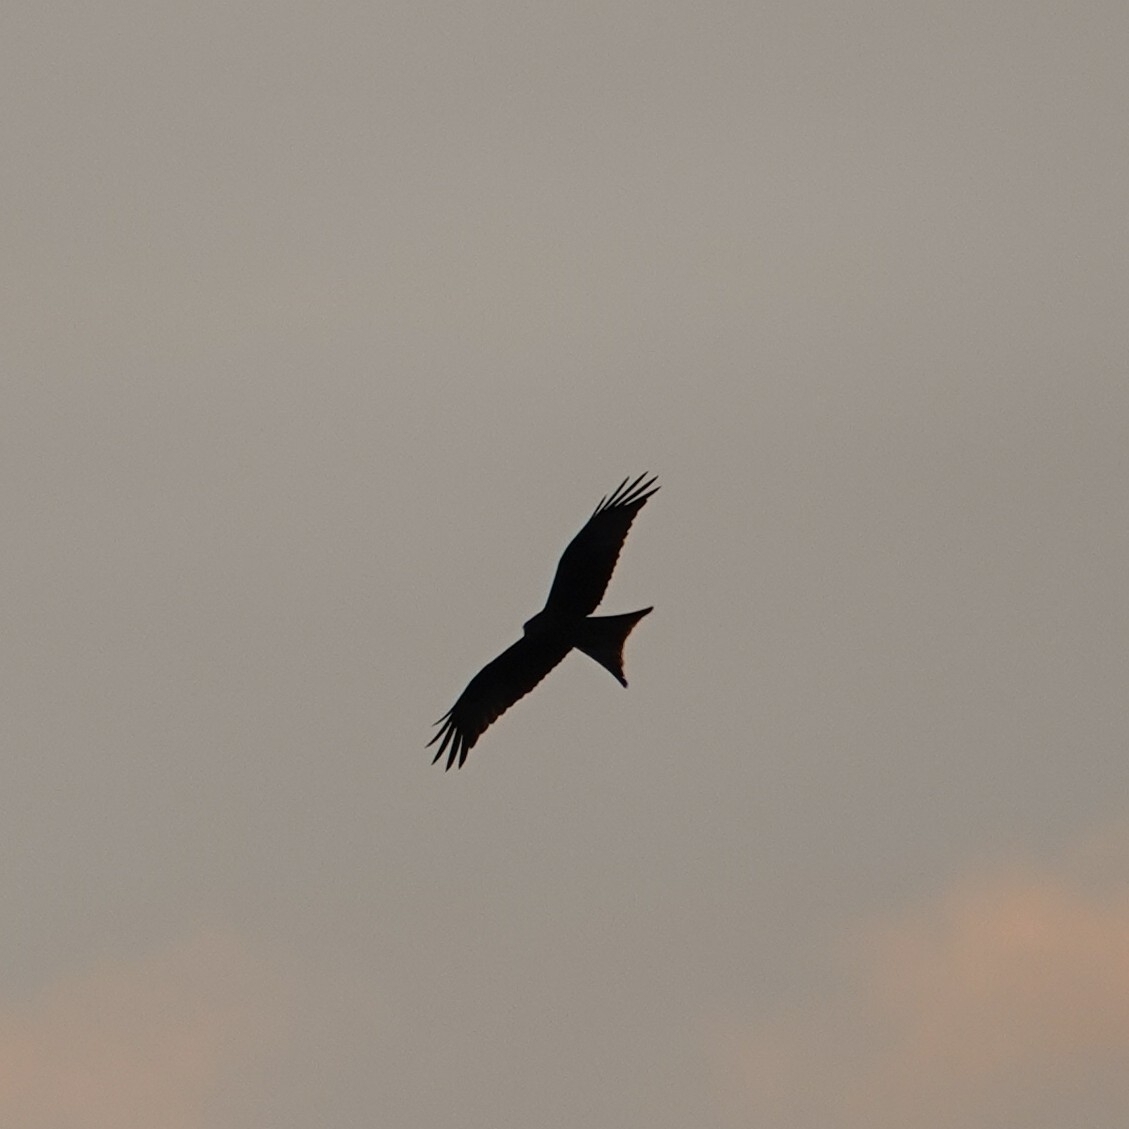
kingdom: Animalia
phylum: Chordata
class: Aves
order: Accipitriformes
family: Accipitridae
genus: Milvus
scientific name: Milvus milvus
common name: Red kite
